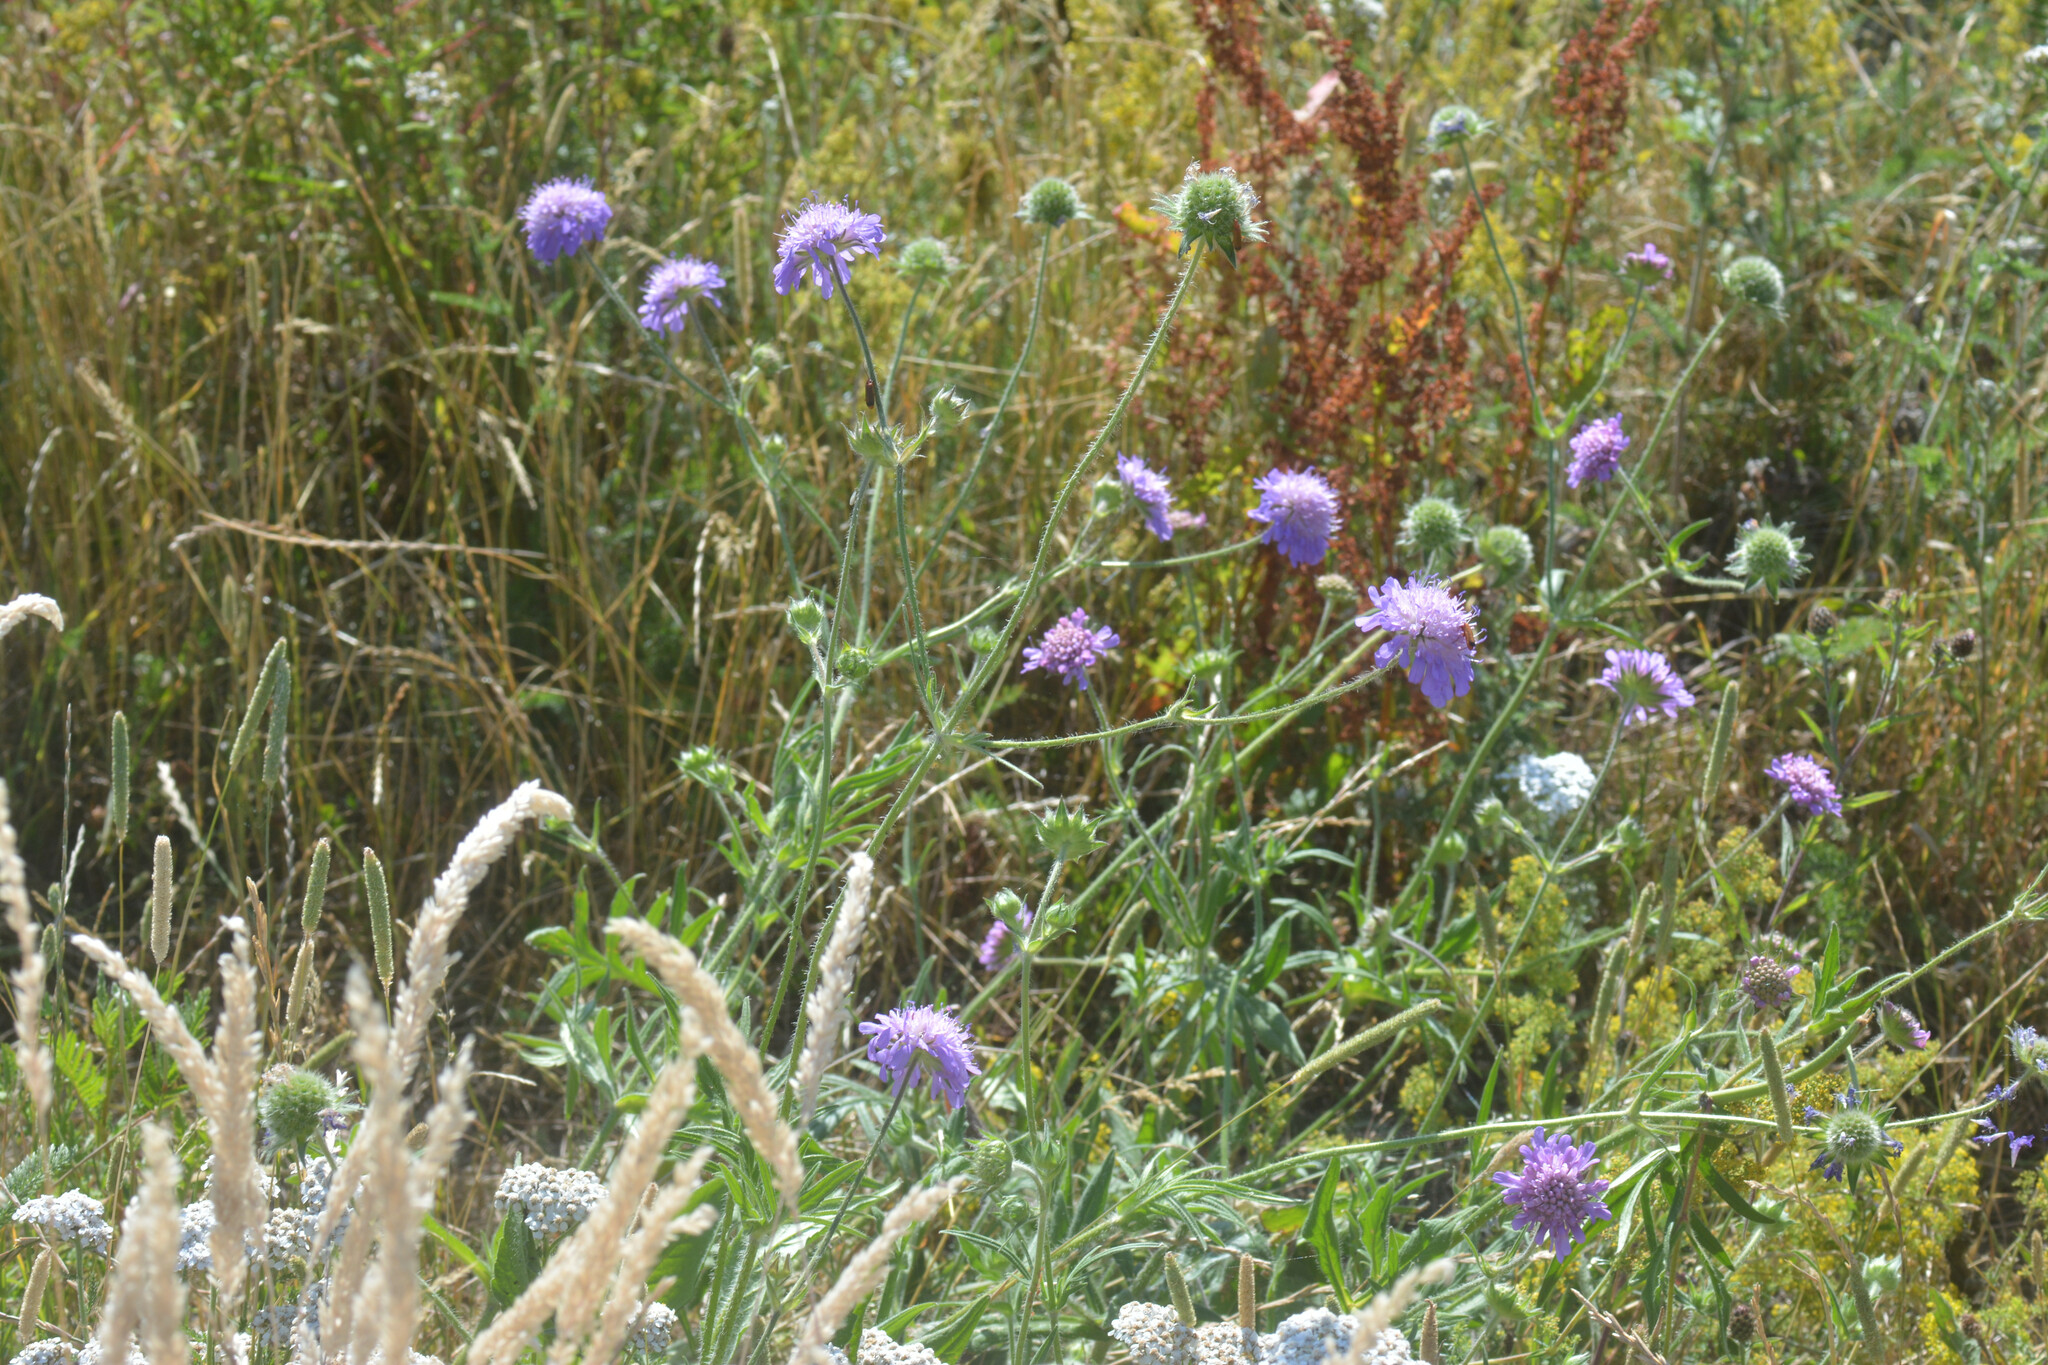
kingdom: Plantae
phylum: Tracheophyta
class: Magnoliopsida
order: Dipsacales
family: Caprifoliaceae
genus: Knautia
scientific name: Knautia arvensis
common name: Field scabiosa
